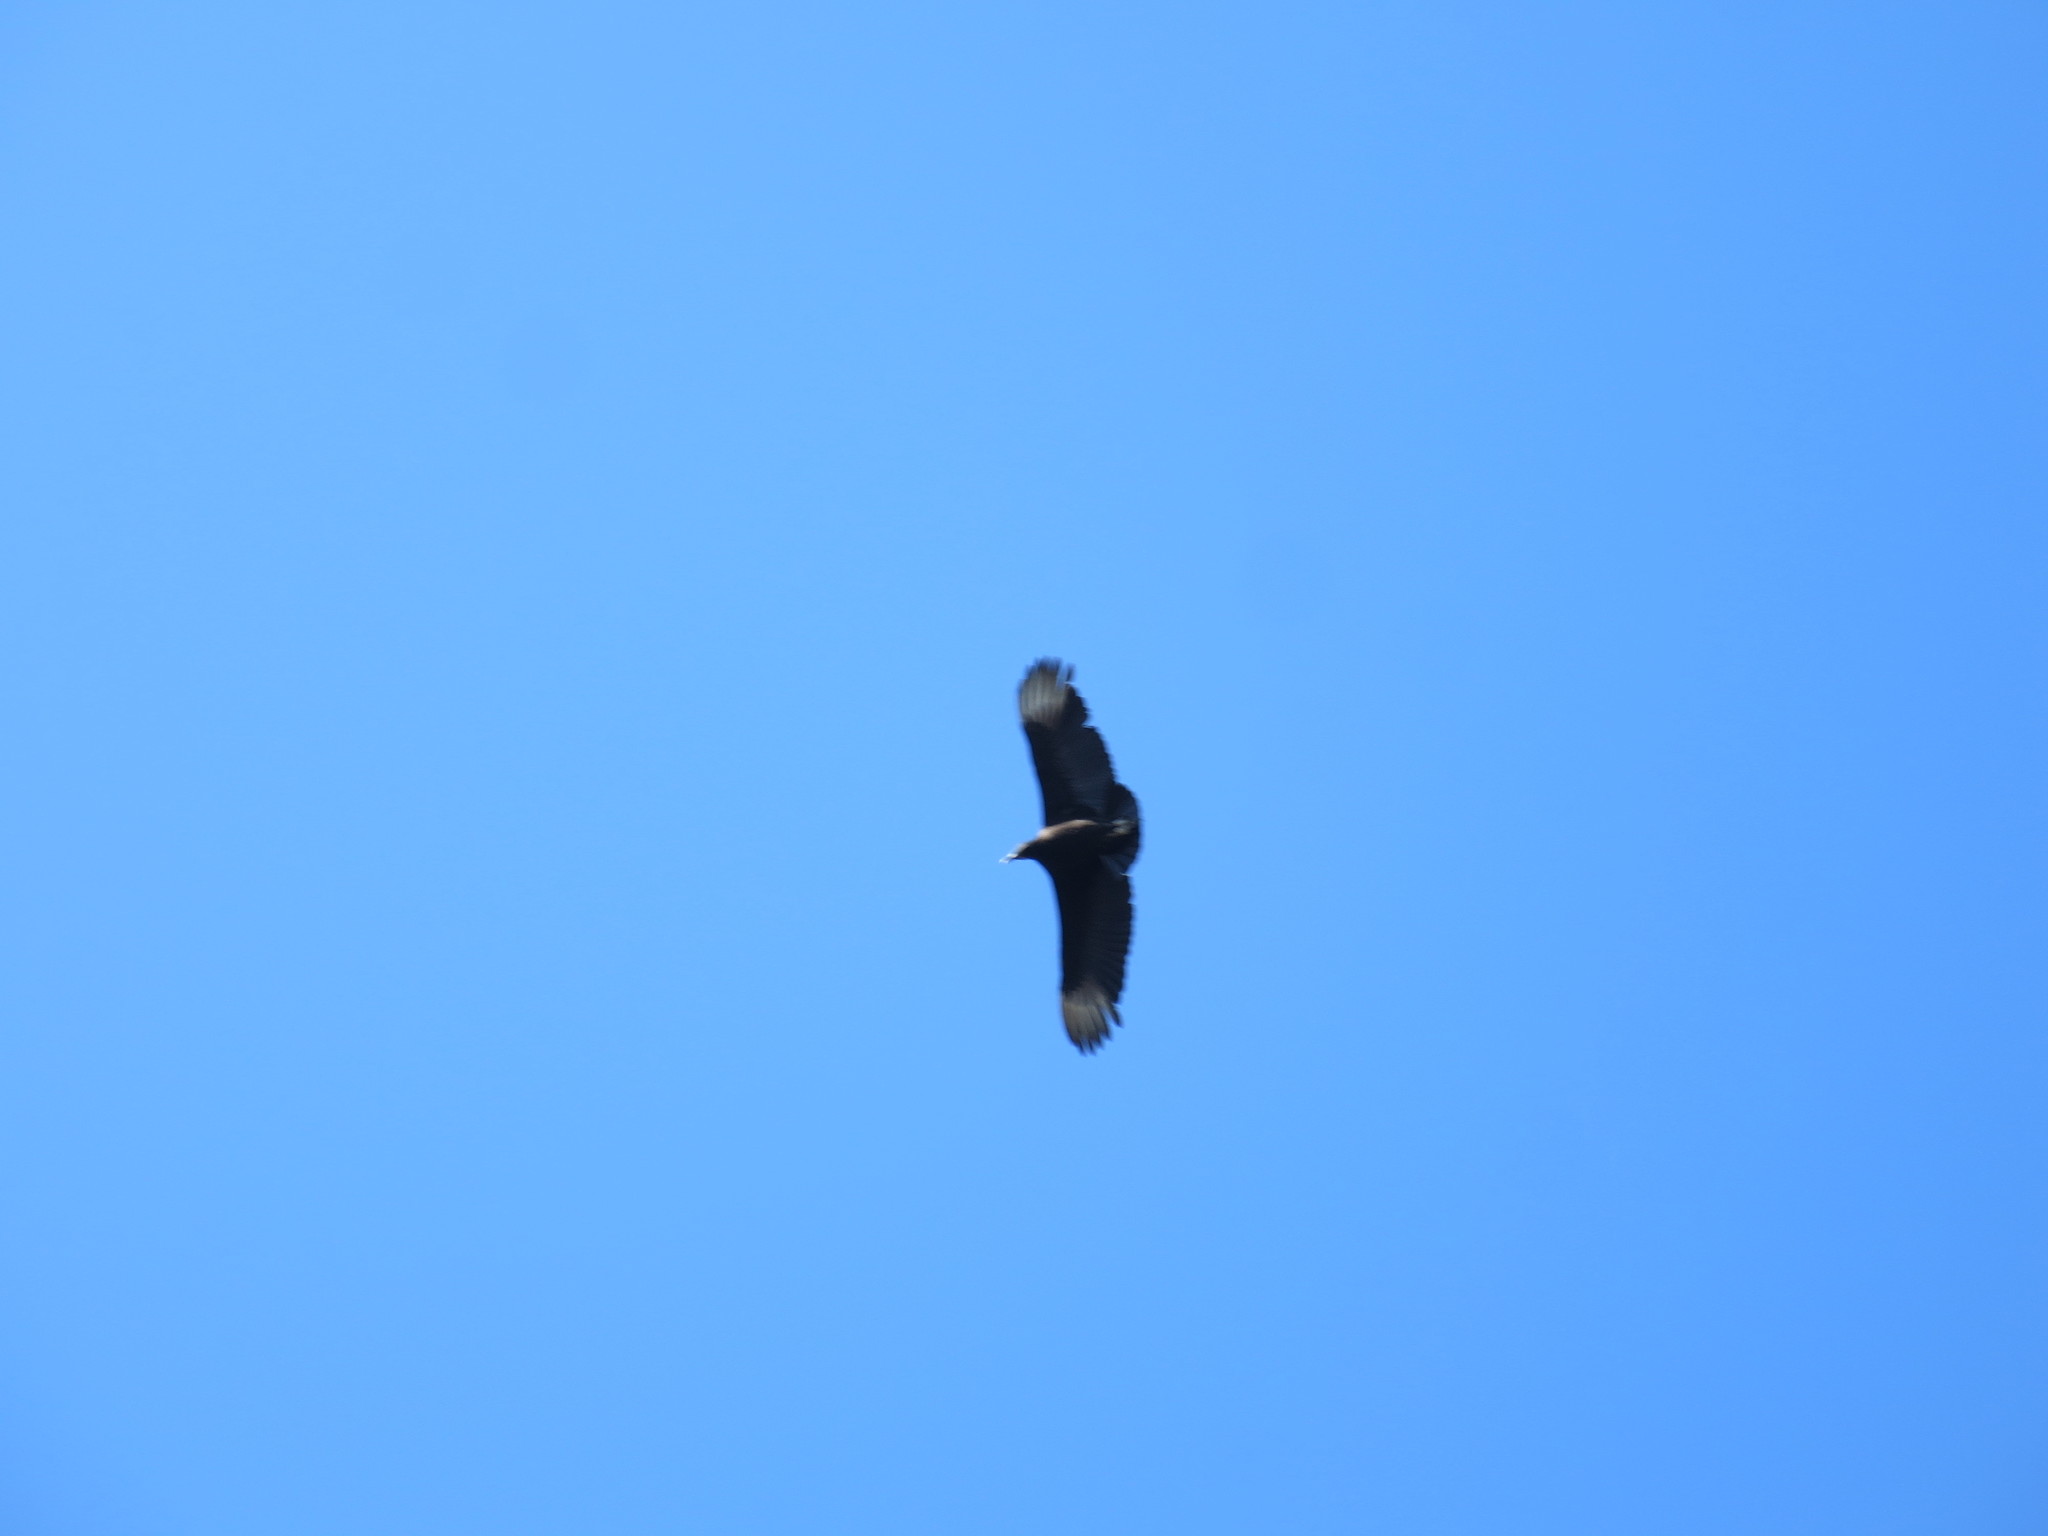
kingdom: Animalia
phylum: Chordata
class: Aves
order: Accipitriformes
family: Cathartidae
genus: Coragyps
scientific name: Coragyps atratus
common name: Black vulture
